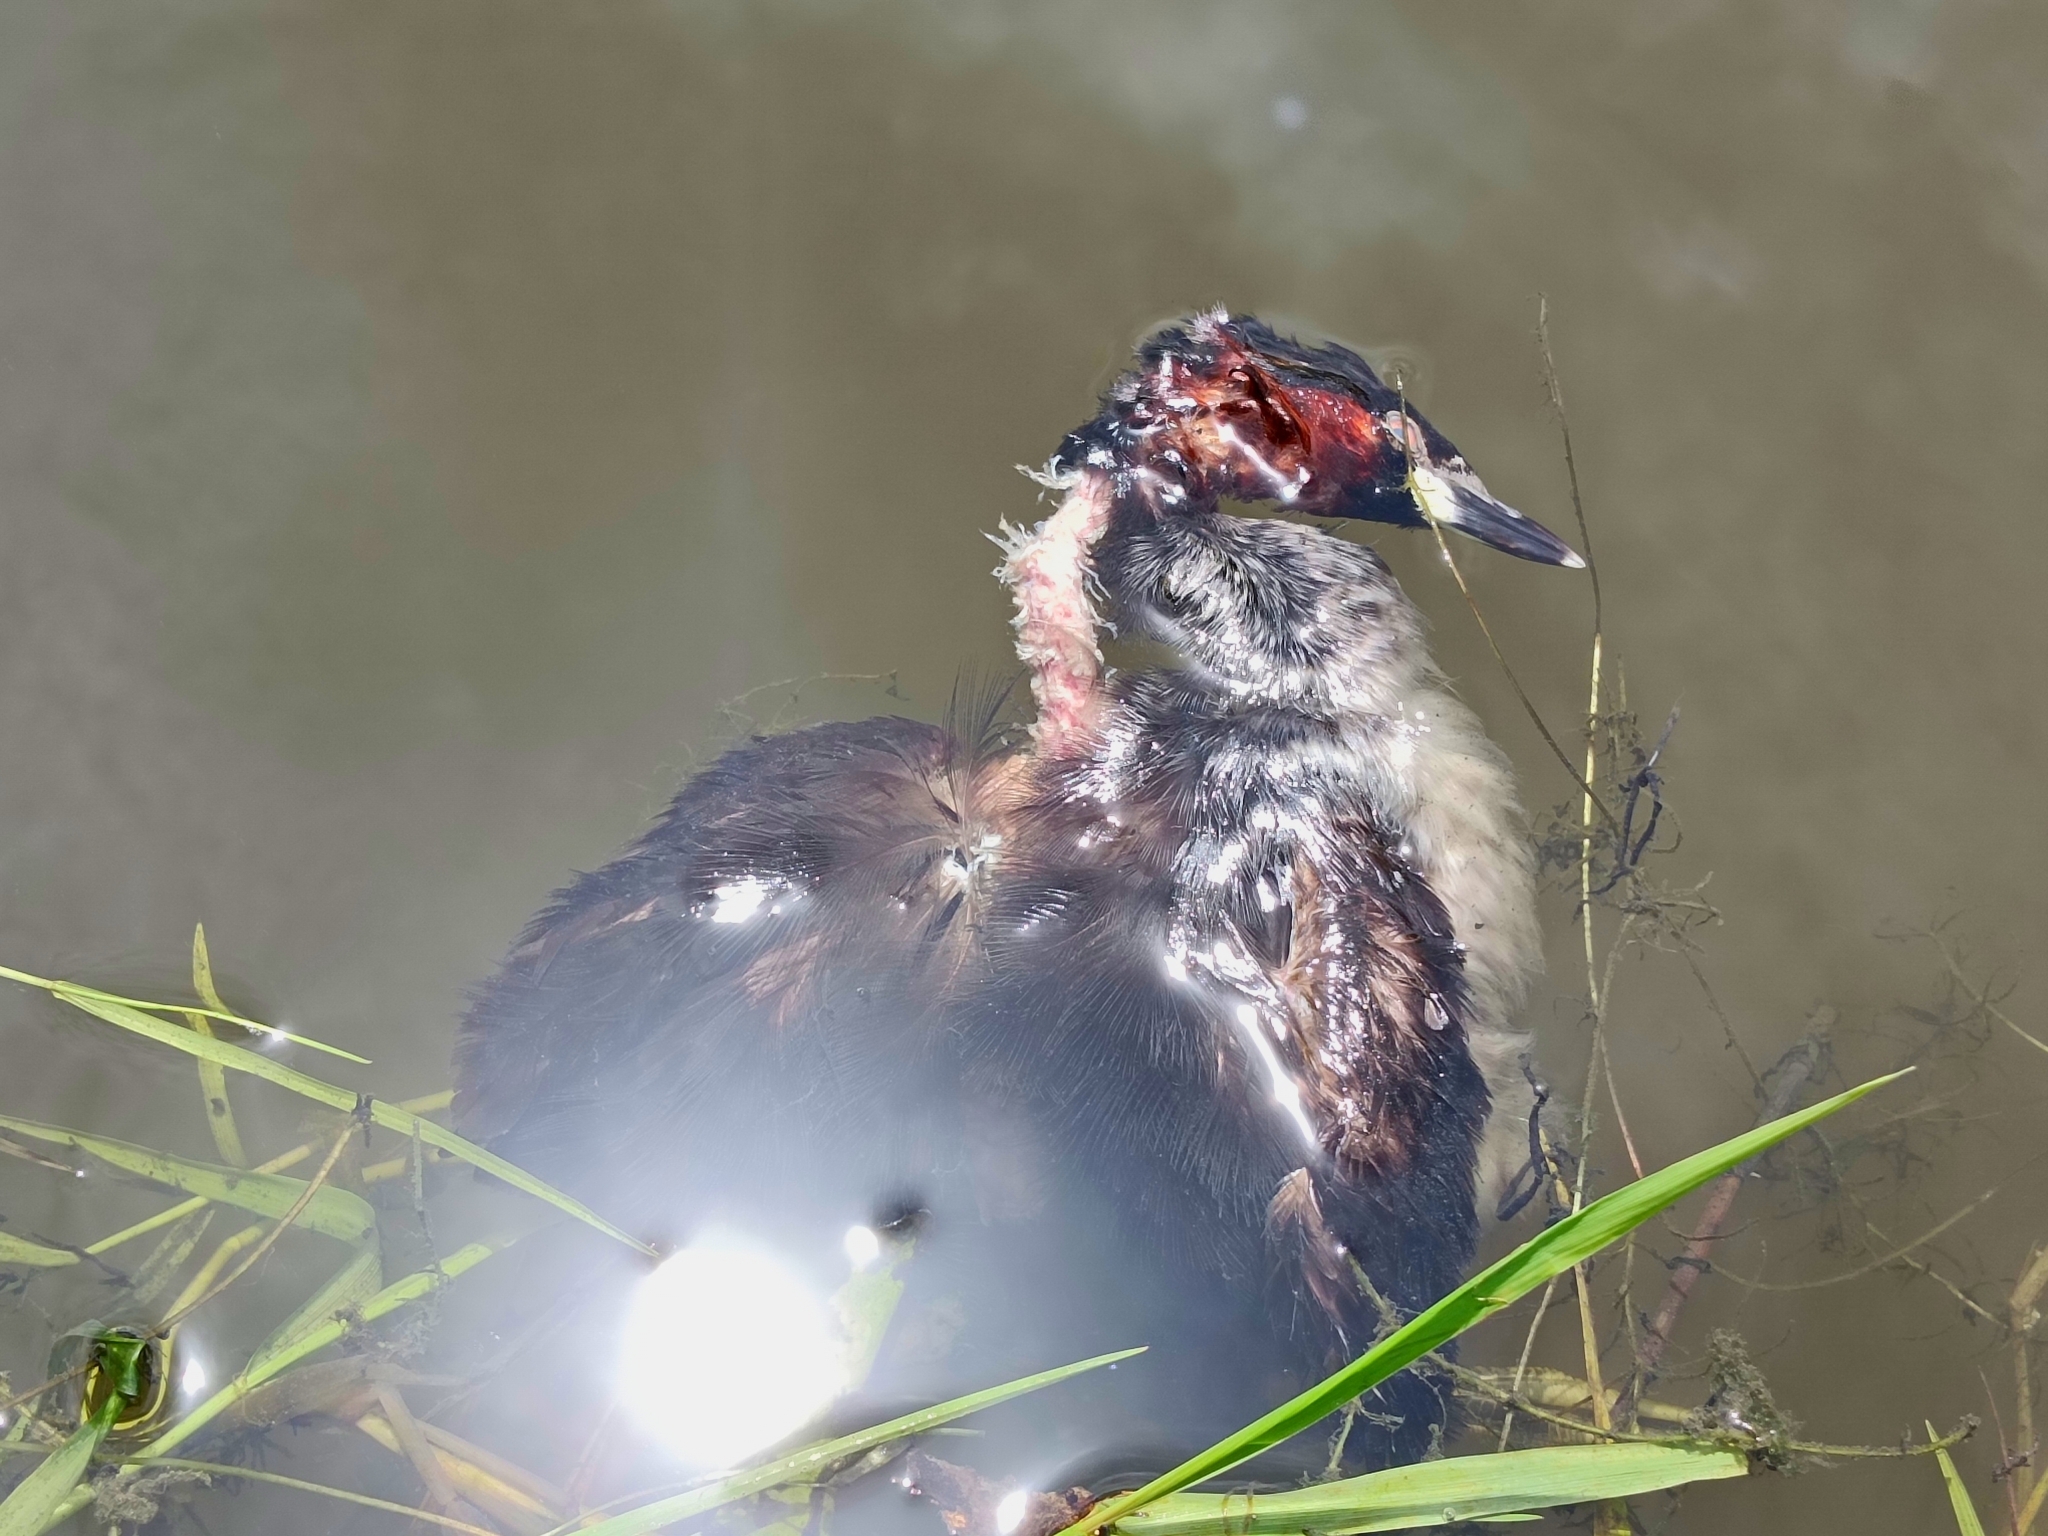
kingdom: Animalia
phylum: Chordata
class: Aves
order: Podicipediformes
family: Podicipedidae
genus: Tachybaptus
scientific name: Tachybaptus ruficollis
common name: Little grebe
